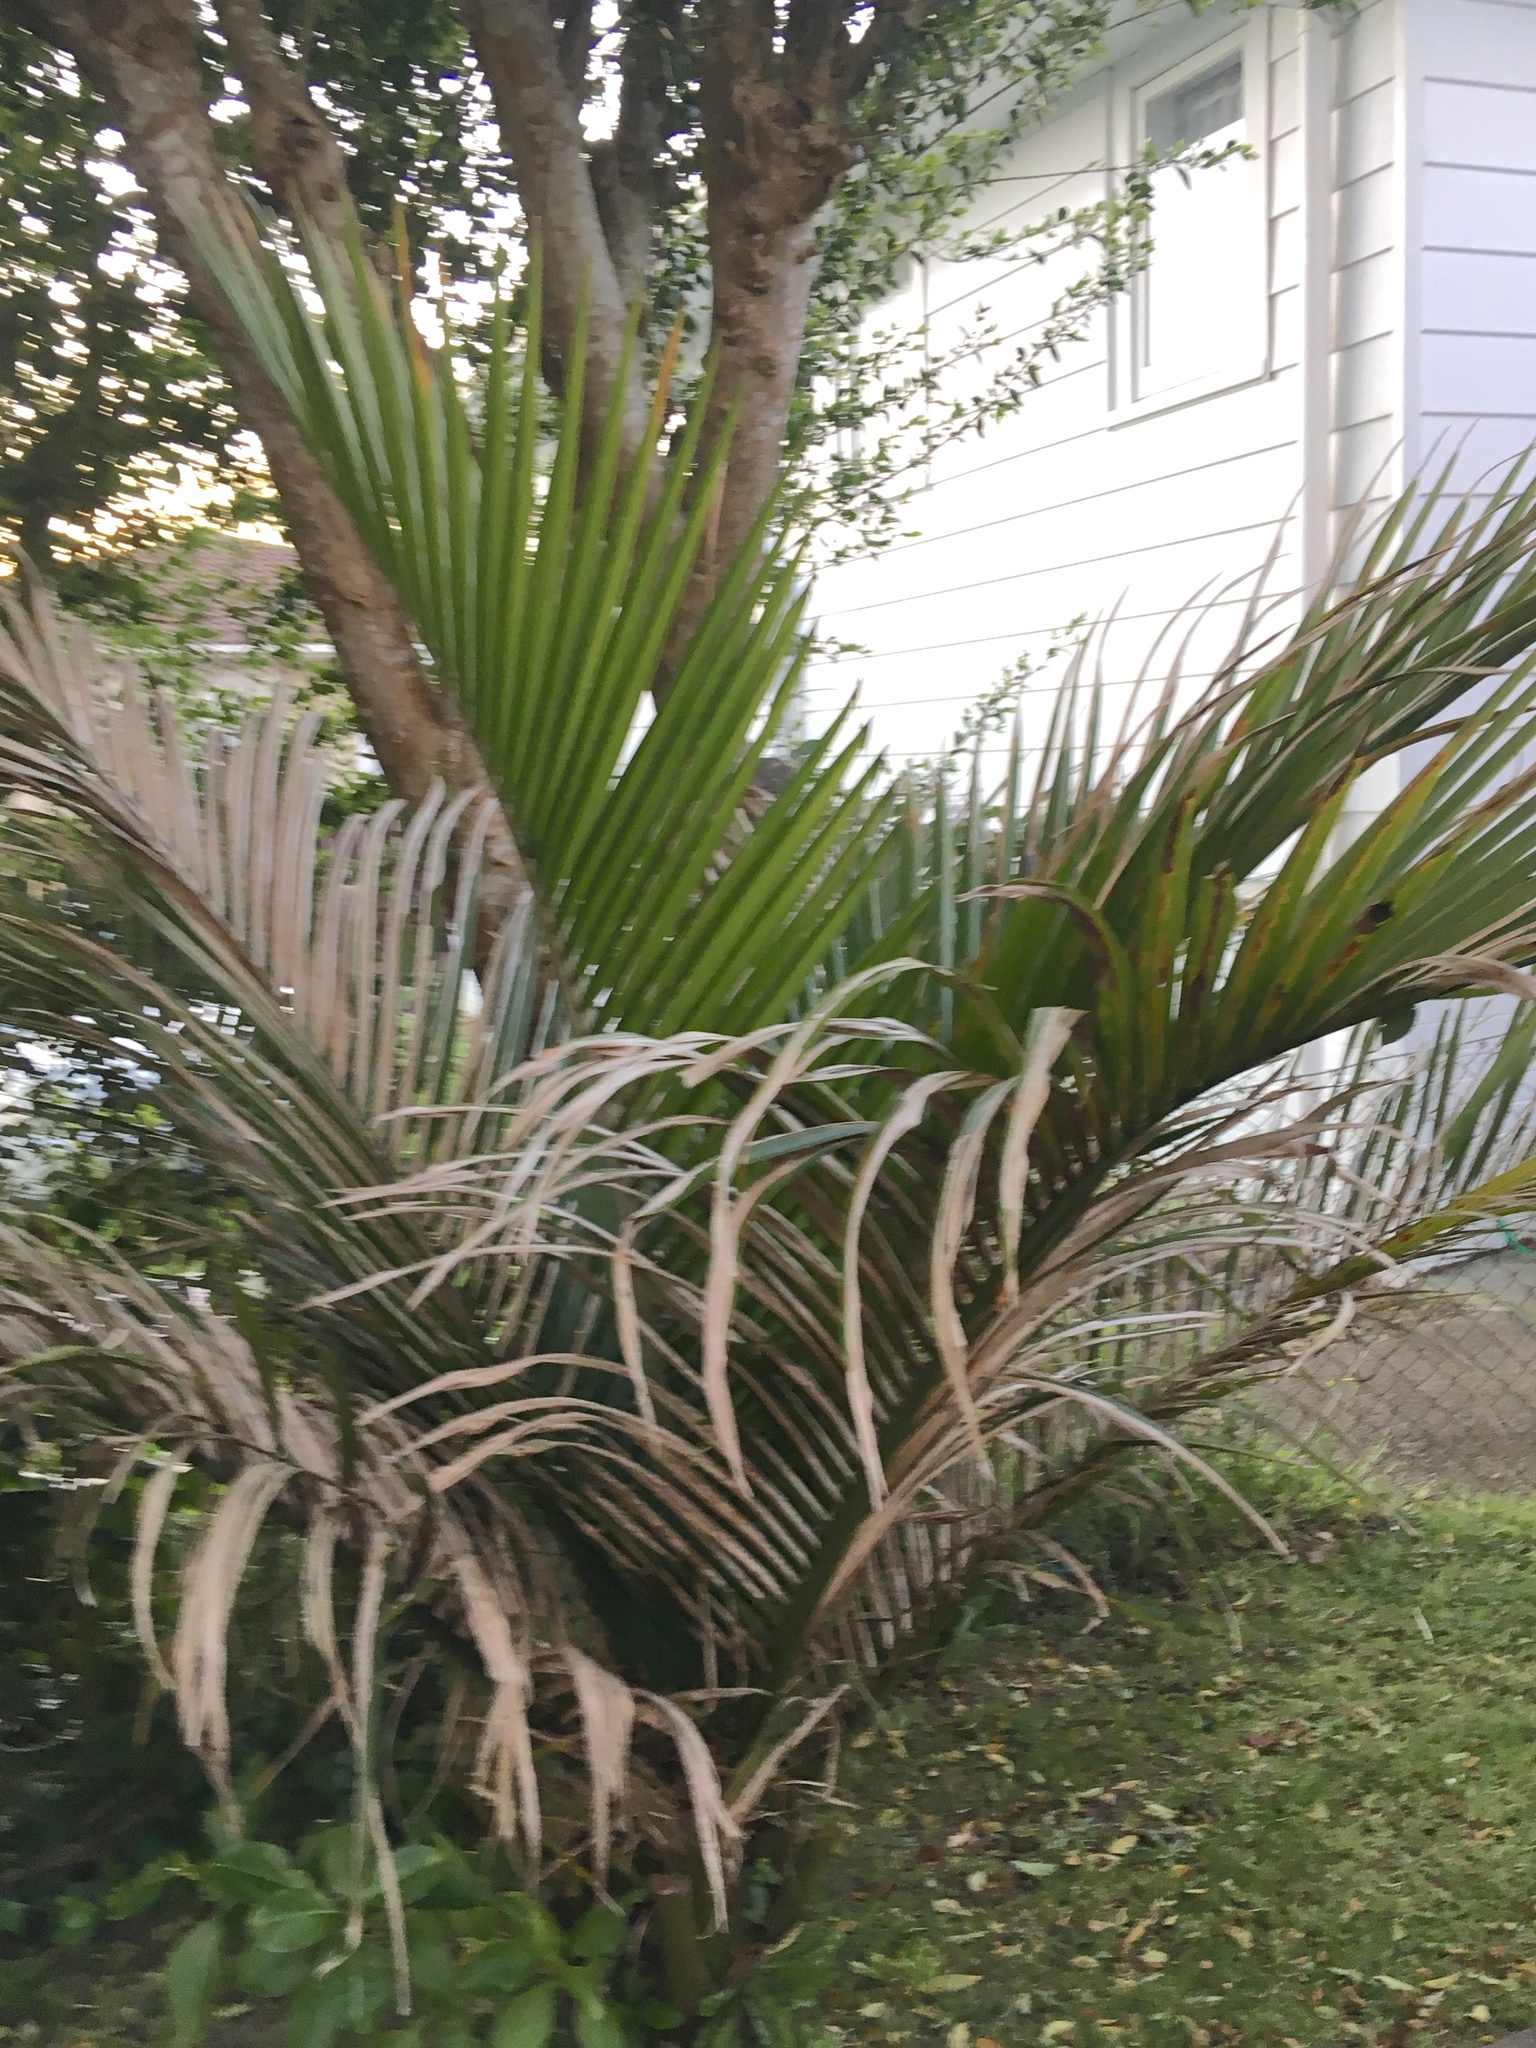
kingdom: Plantae
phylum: Tracheophyta
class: Liliopsida
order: Arecales
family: Arecaceae
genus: Rhopalostylis
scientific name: Rhopalostylis sapida
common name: Feather-duster palm
